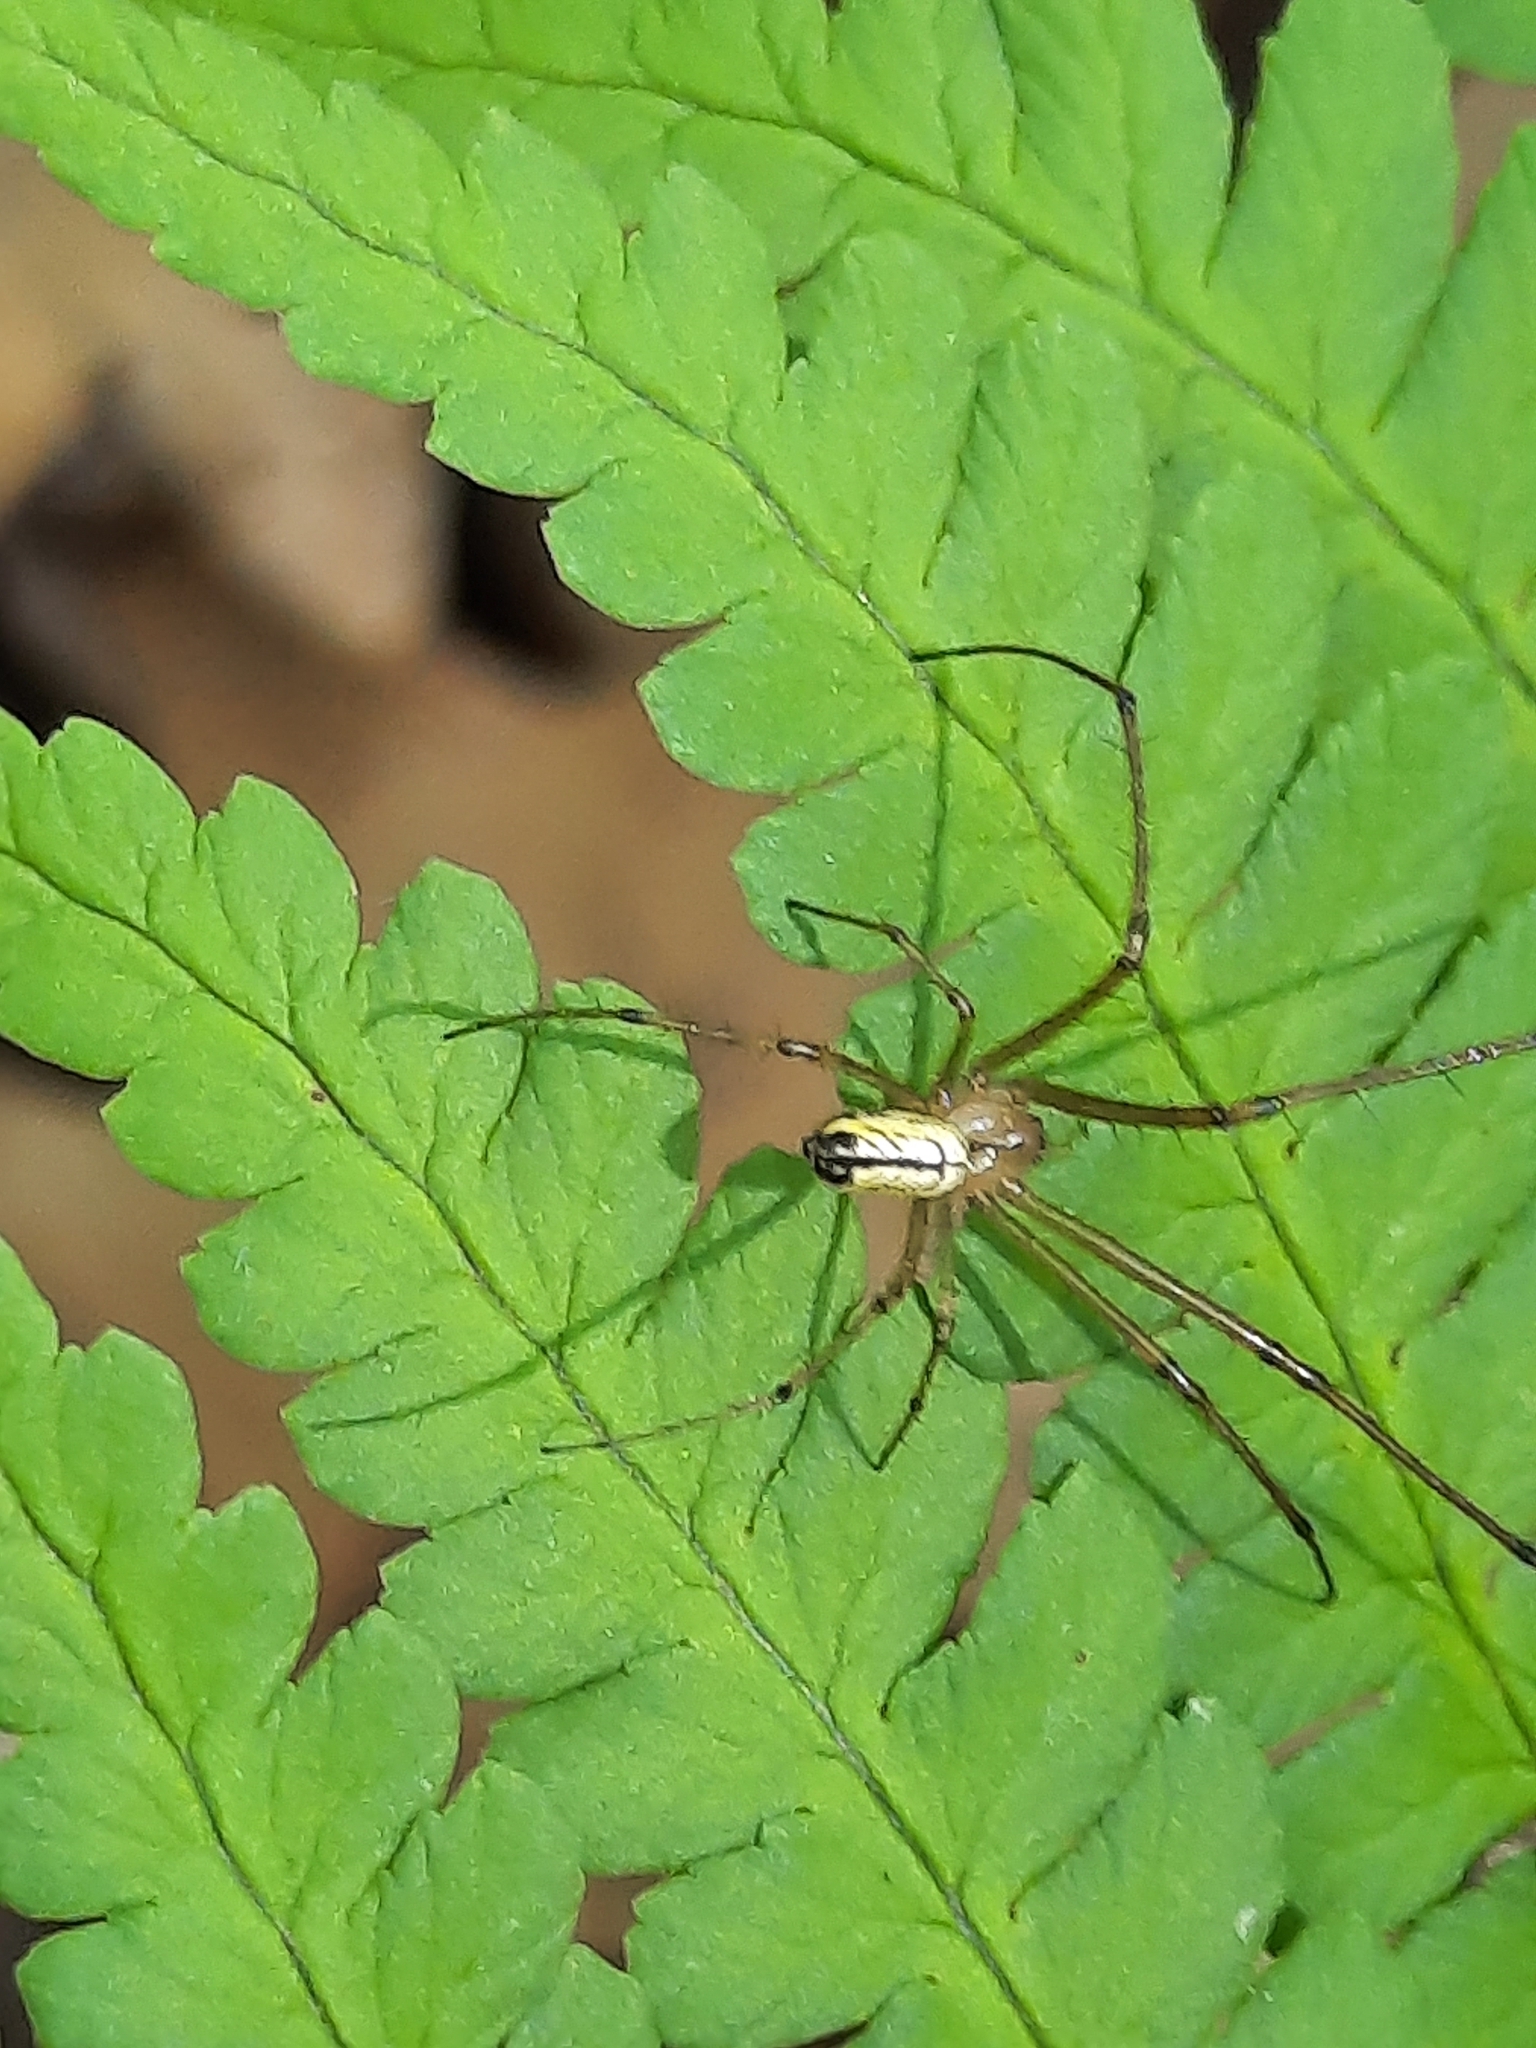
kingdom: Animalia
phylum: Arthropoda
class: Arachnida
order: Araneae
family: Tetragnathidae
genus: Leucauge
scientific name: Leucauge venusta
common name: Longjawed orb weavers
